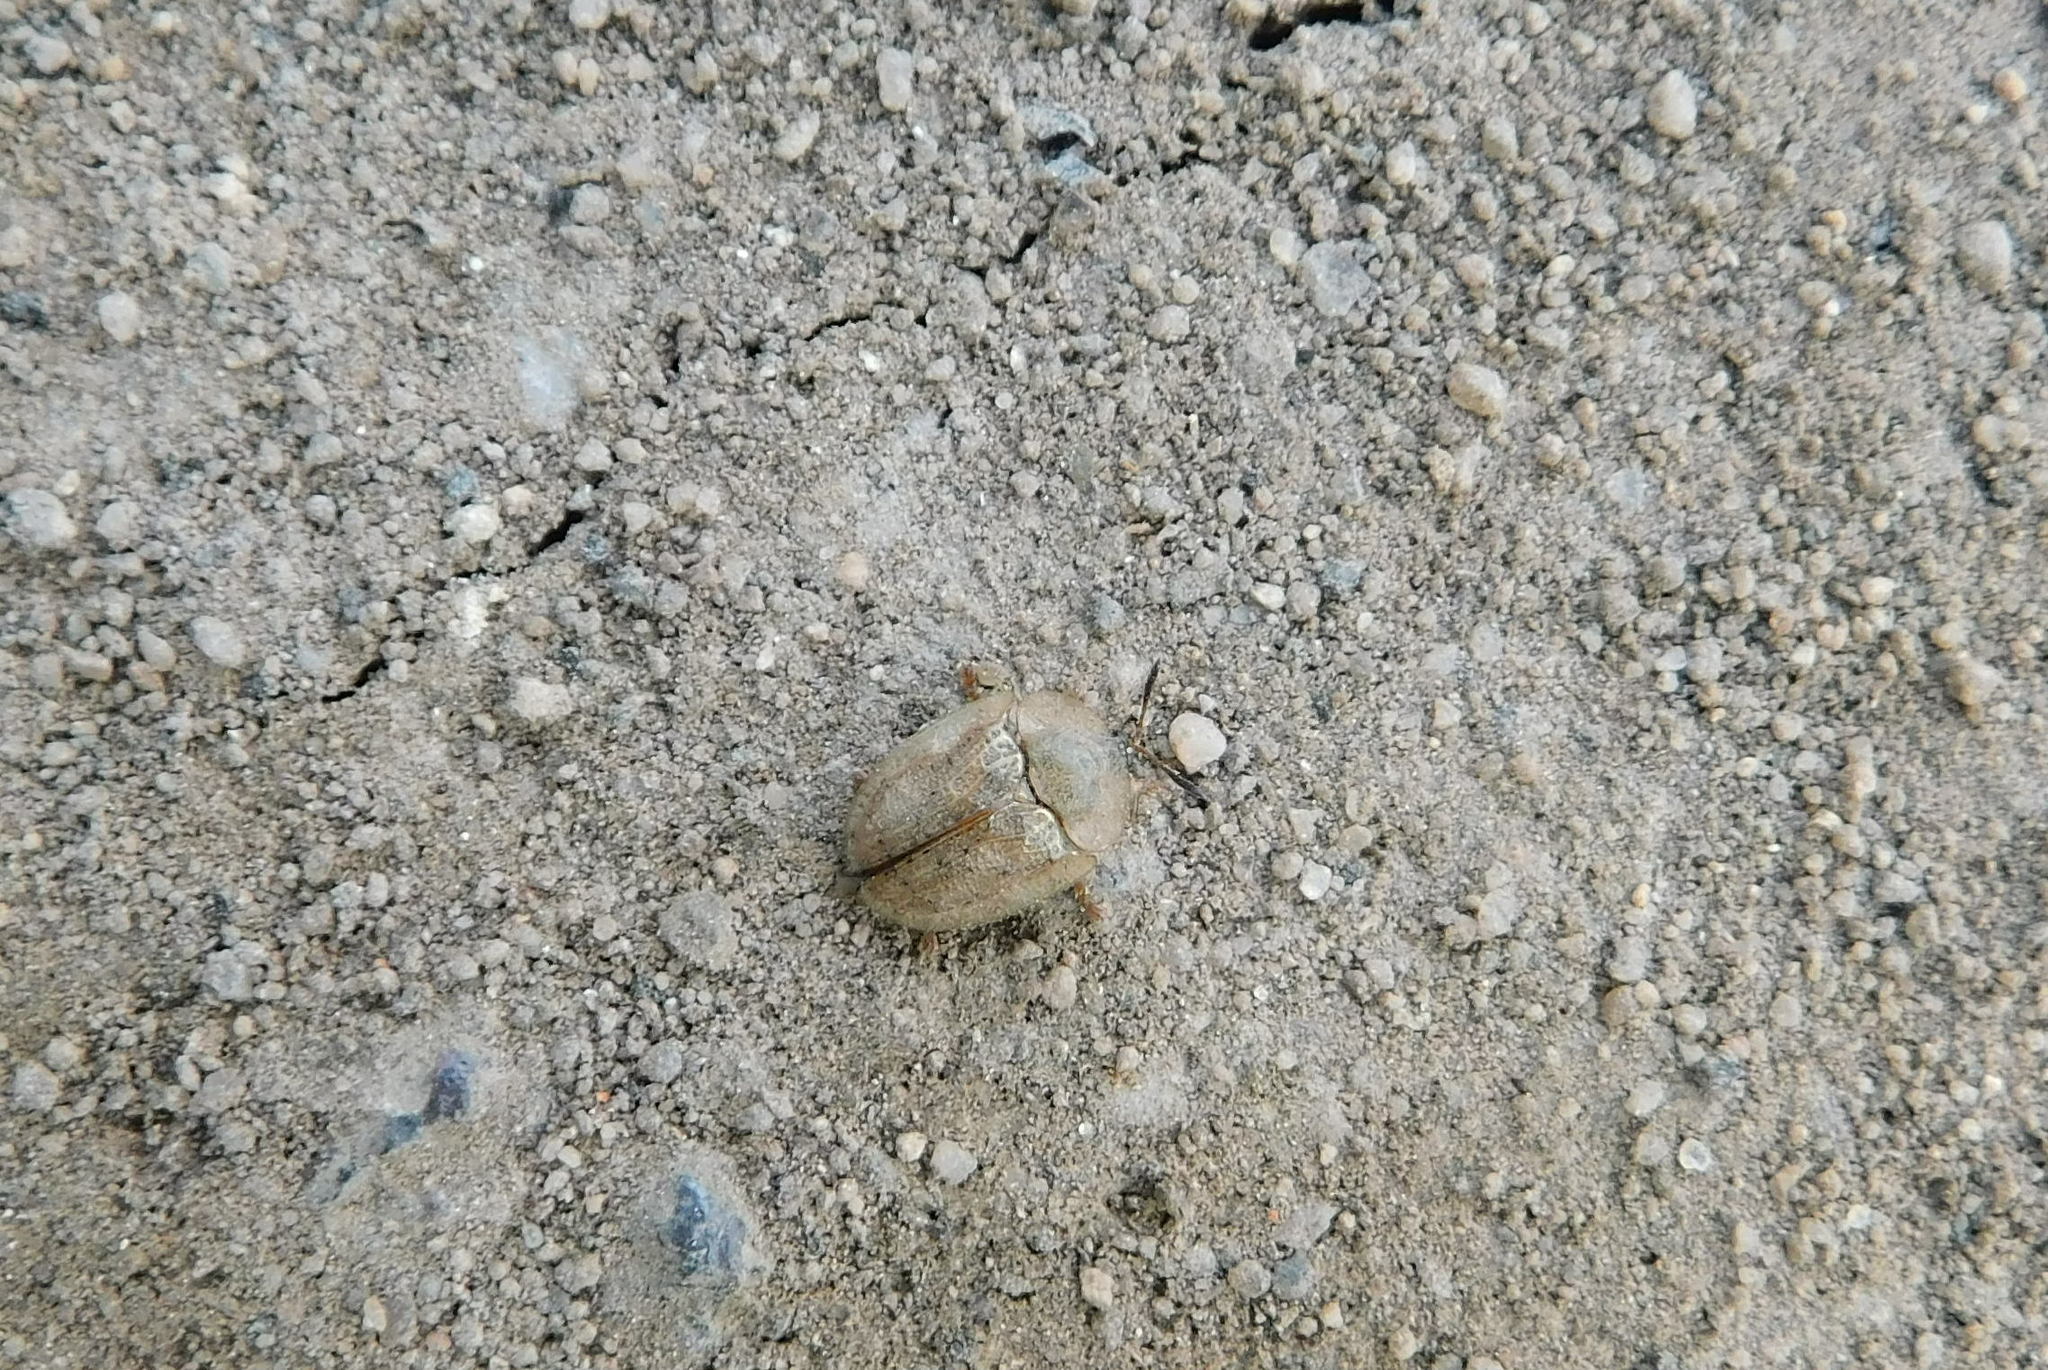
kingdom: Animalia
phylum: Arthropoda
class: Insecta
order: Coleoptera
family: Chrysomelidae
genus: Cassida
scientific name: Cassida nebulosa
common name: Beet tortoise beetle
